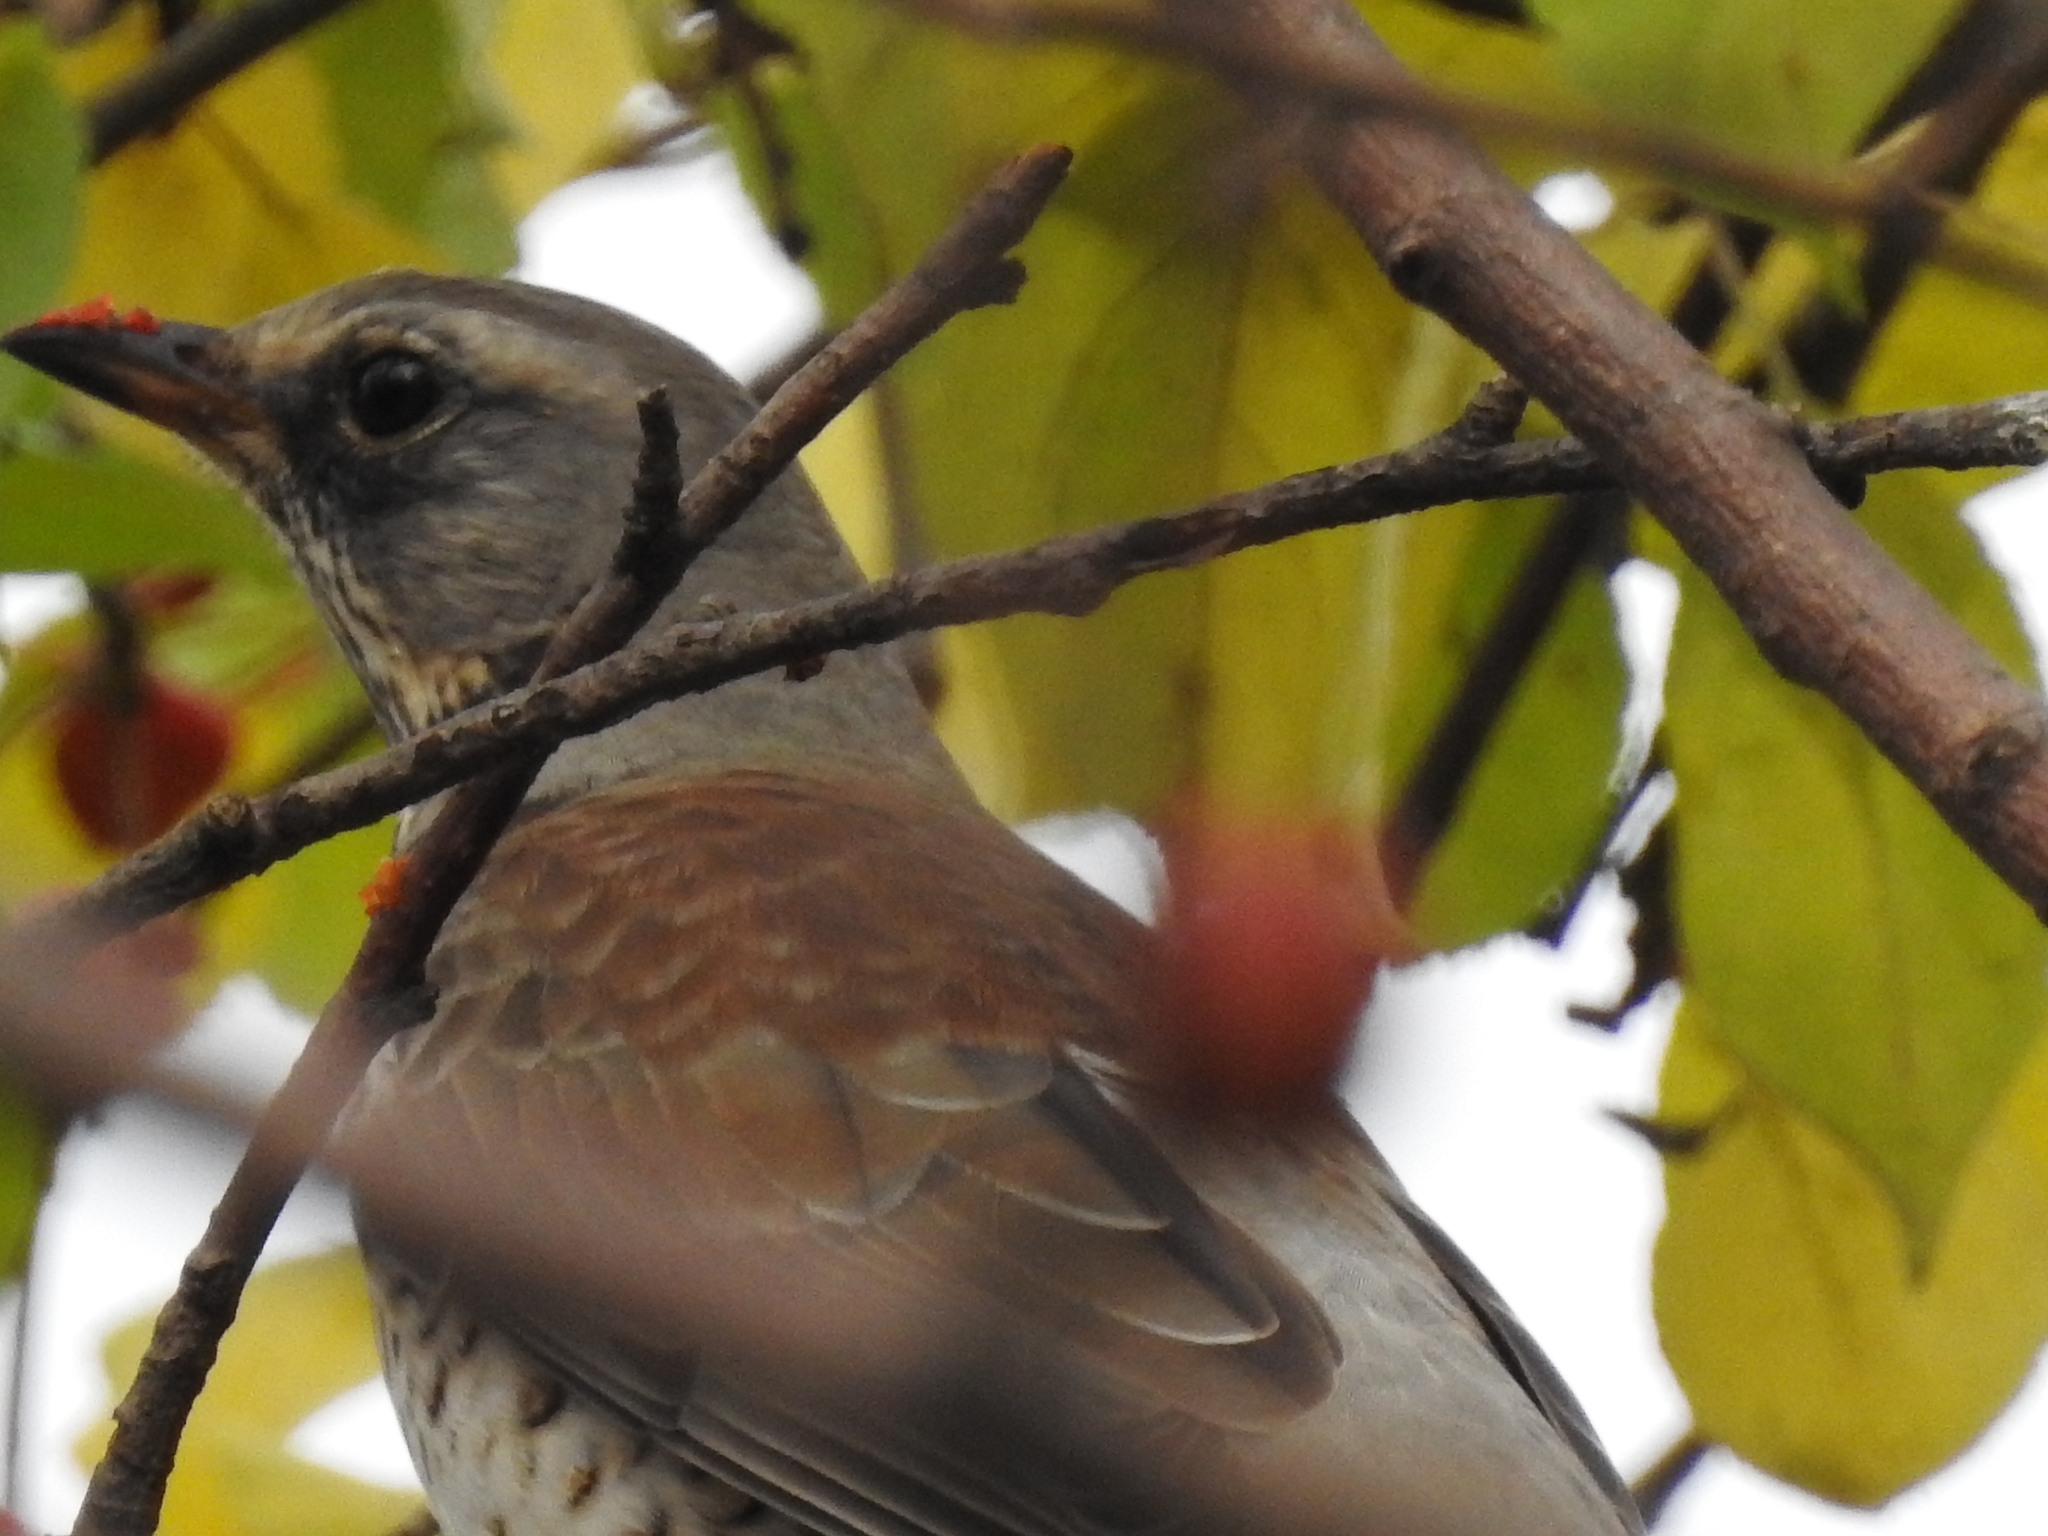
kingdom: Animalia
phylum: Chordata
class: Aves
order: Passeriformes
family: Turdidae
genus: Turdus
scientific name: Turdus pilaris
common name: Fieldfare
